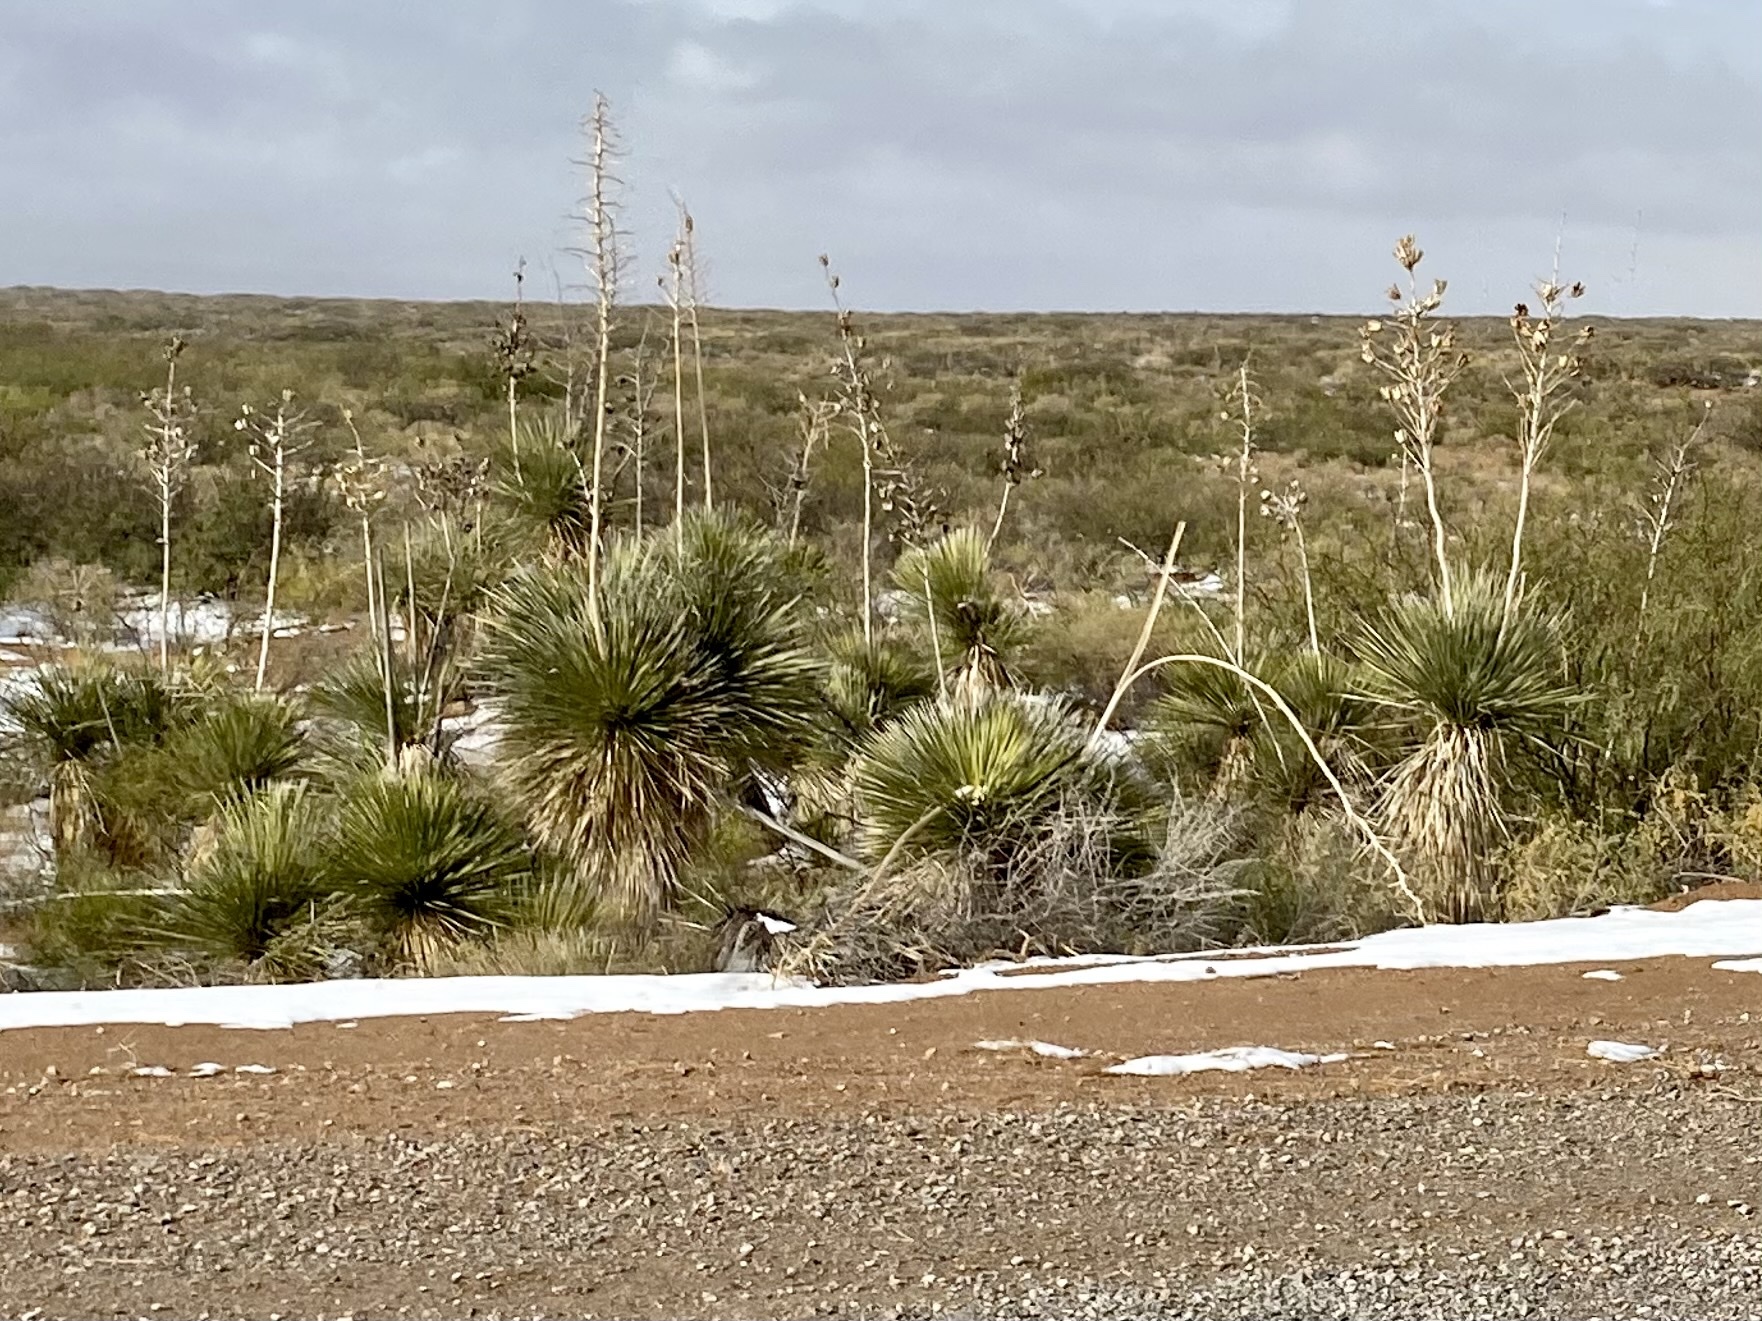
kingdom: Plantae
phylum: Tracheophyta
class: Liliopsida
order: Asparagales
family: Asparagaceae
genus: Yucca
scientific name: Yucca elata
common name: Palmella
